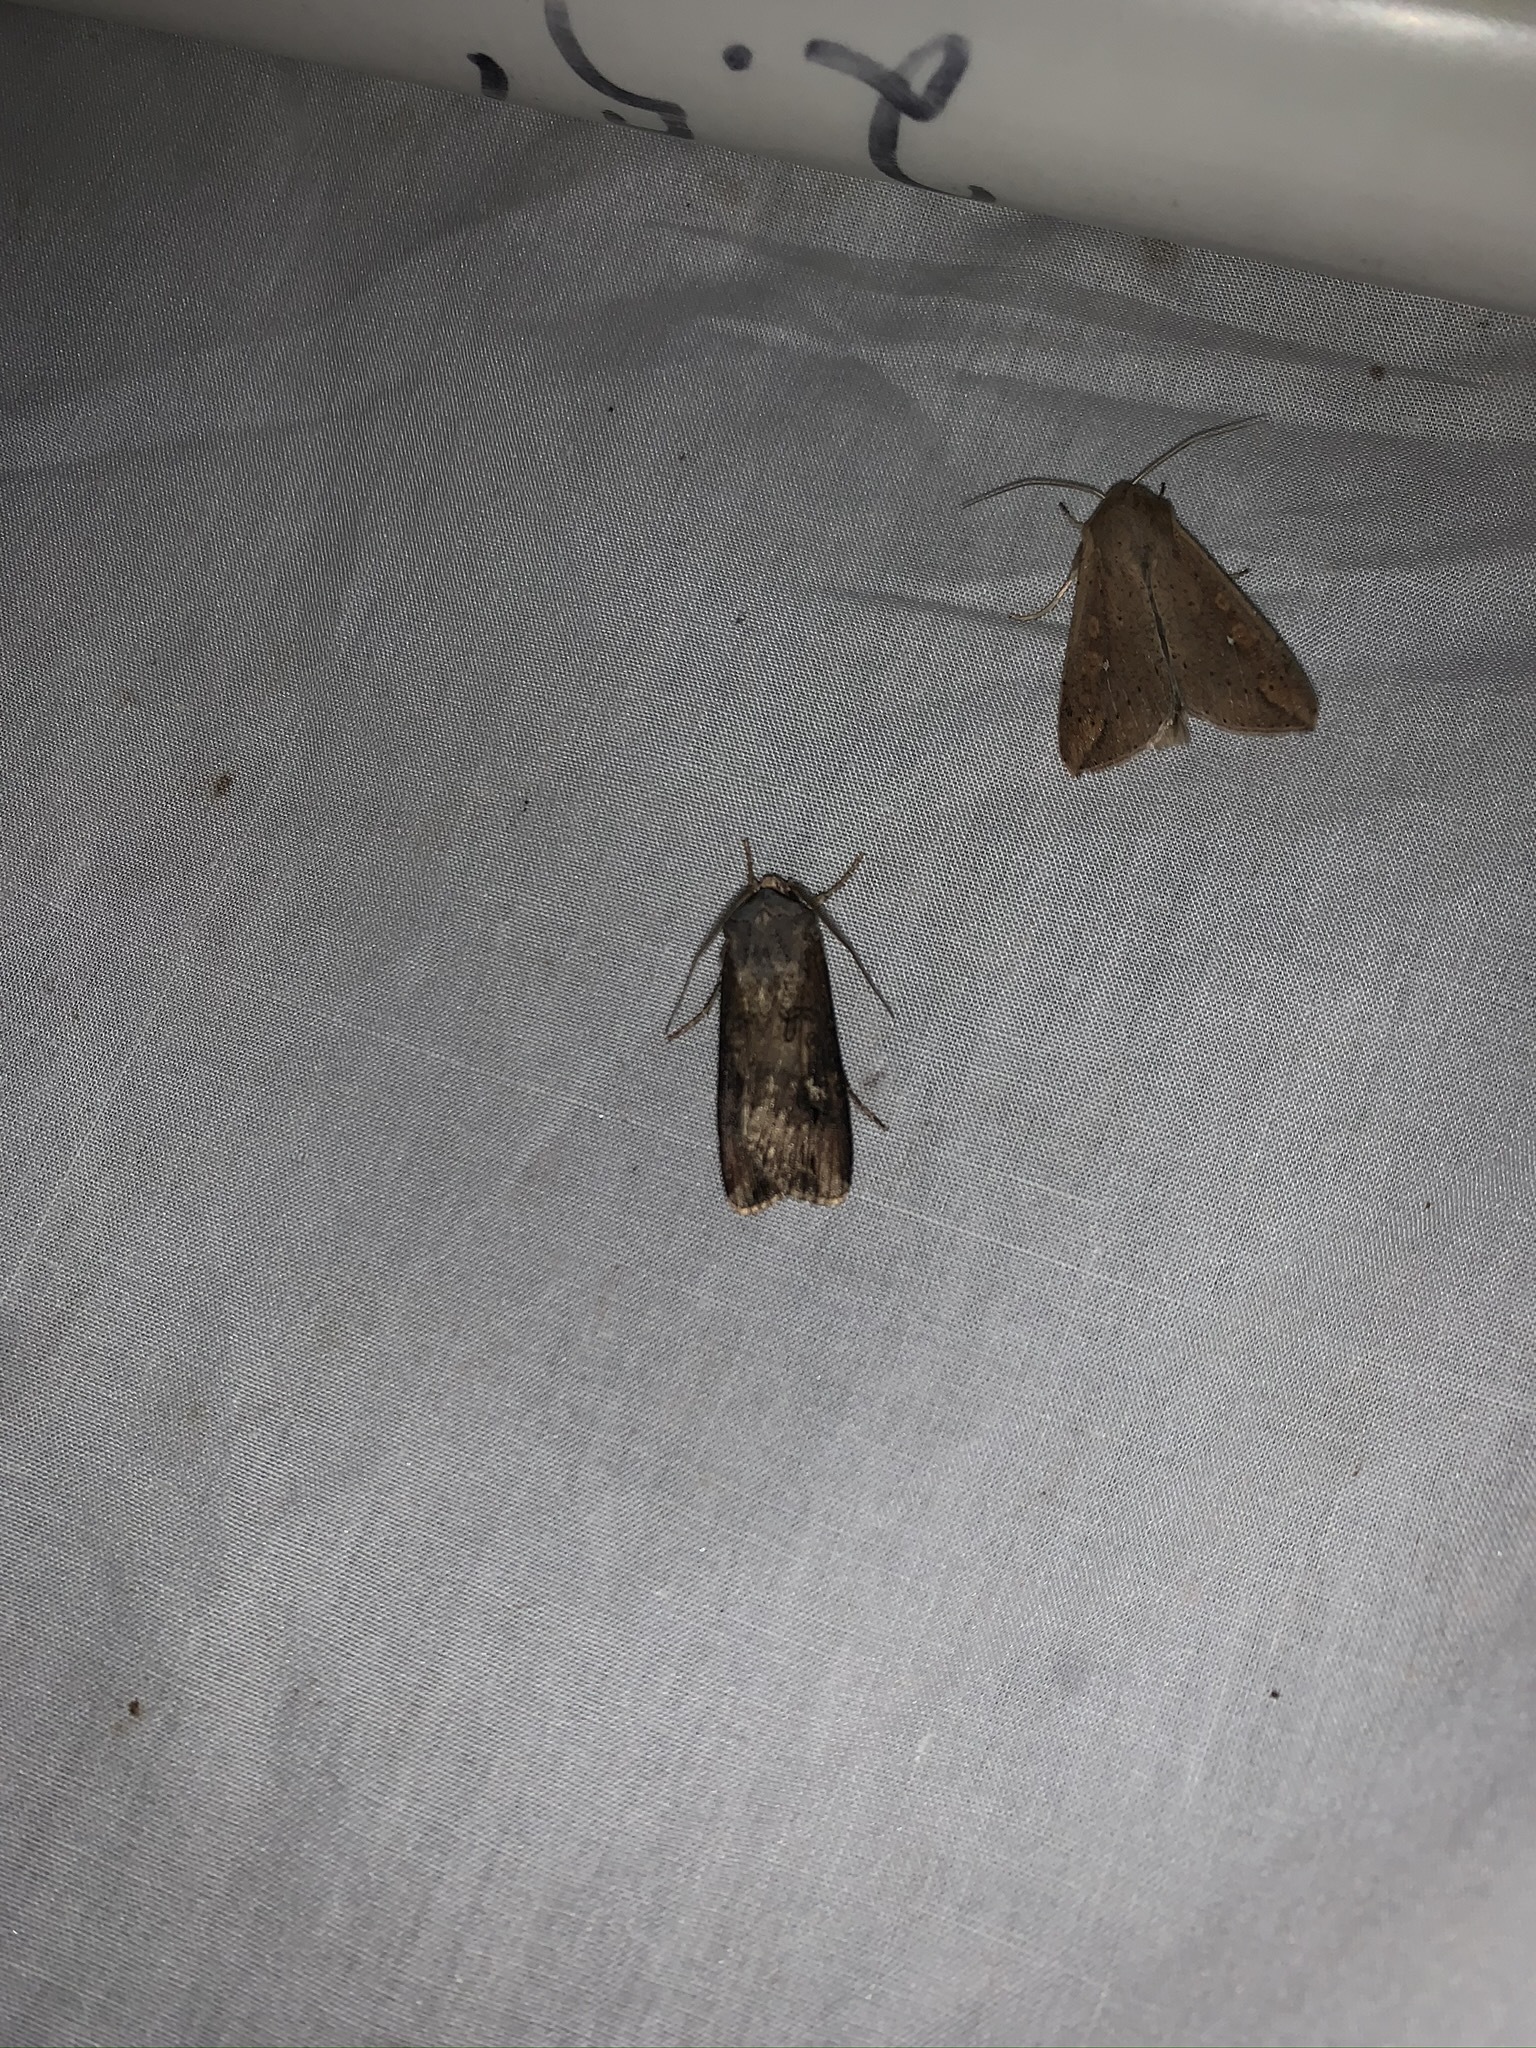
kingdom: Animalia
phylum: Arthropoda
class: Insecta
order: Lepidoptera
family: Noctuidae
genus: Agrotis
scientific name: Agrotis ipsilon
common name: Dark sword-grass
